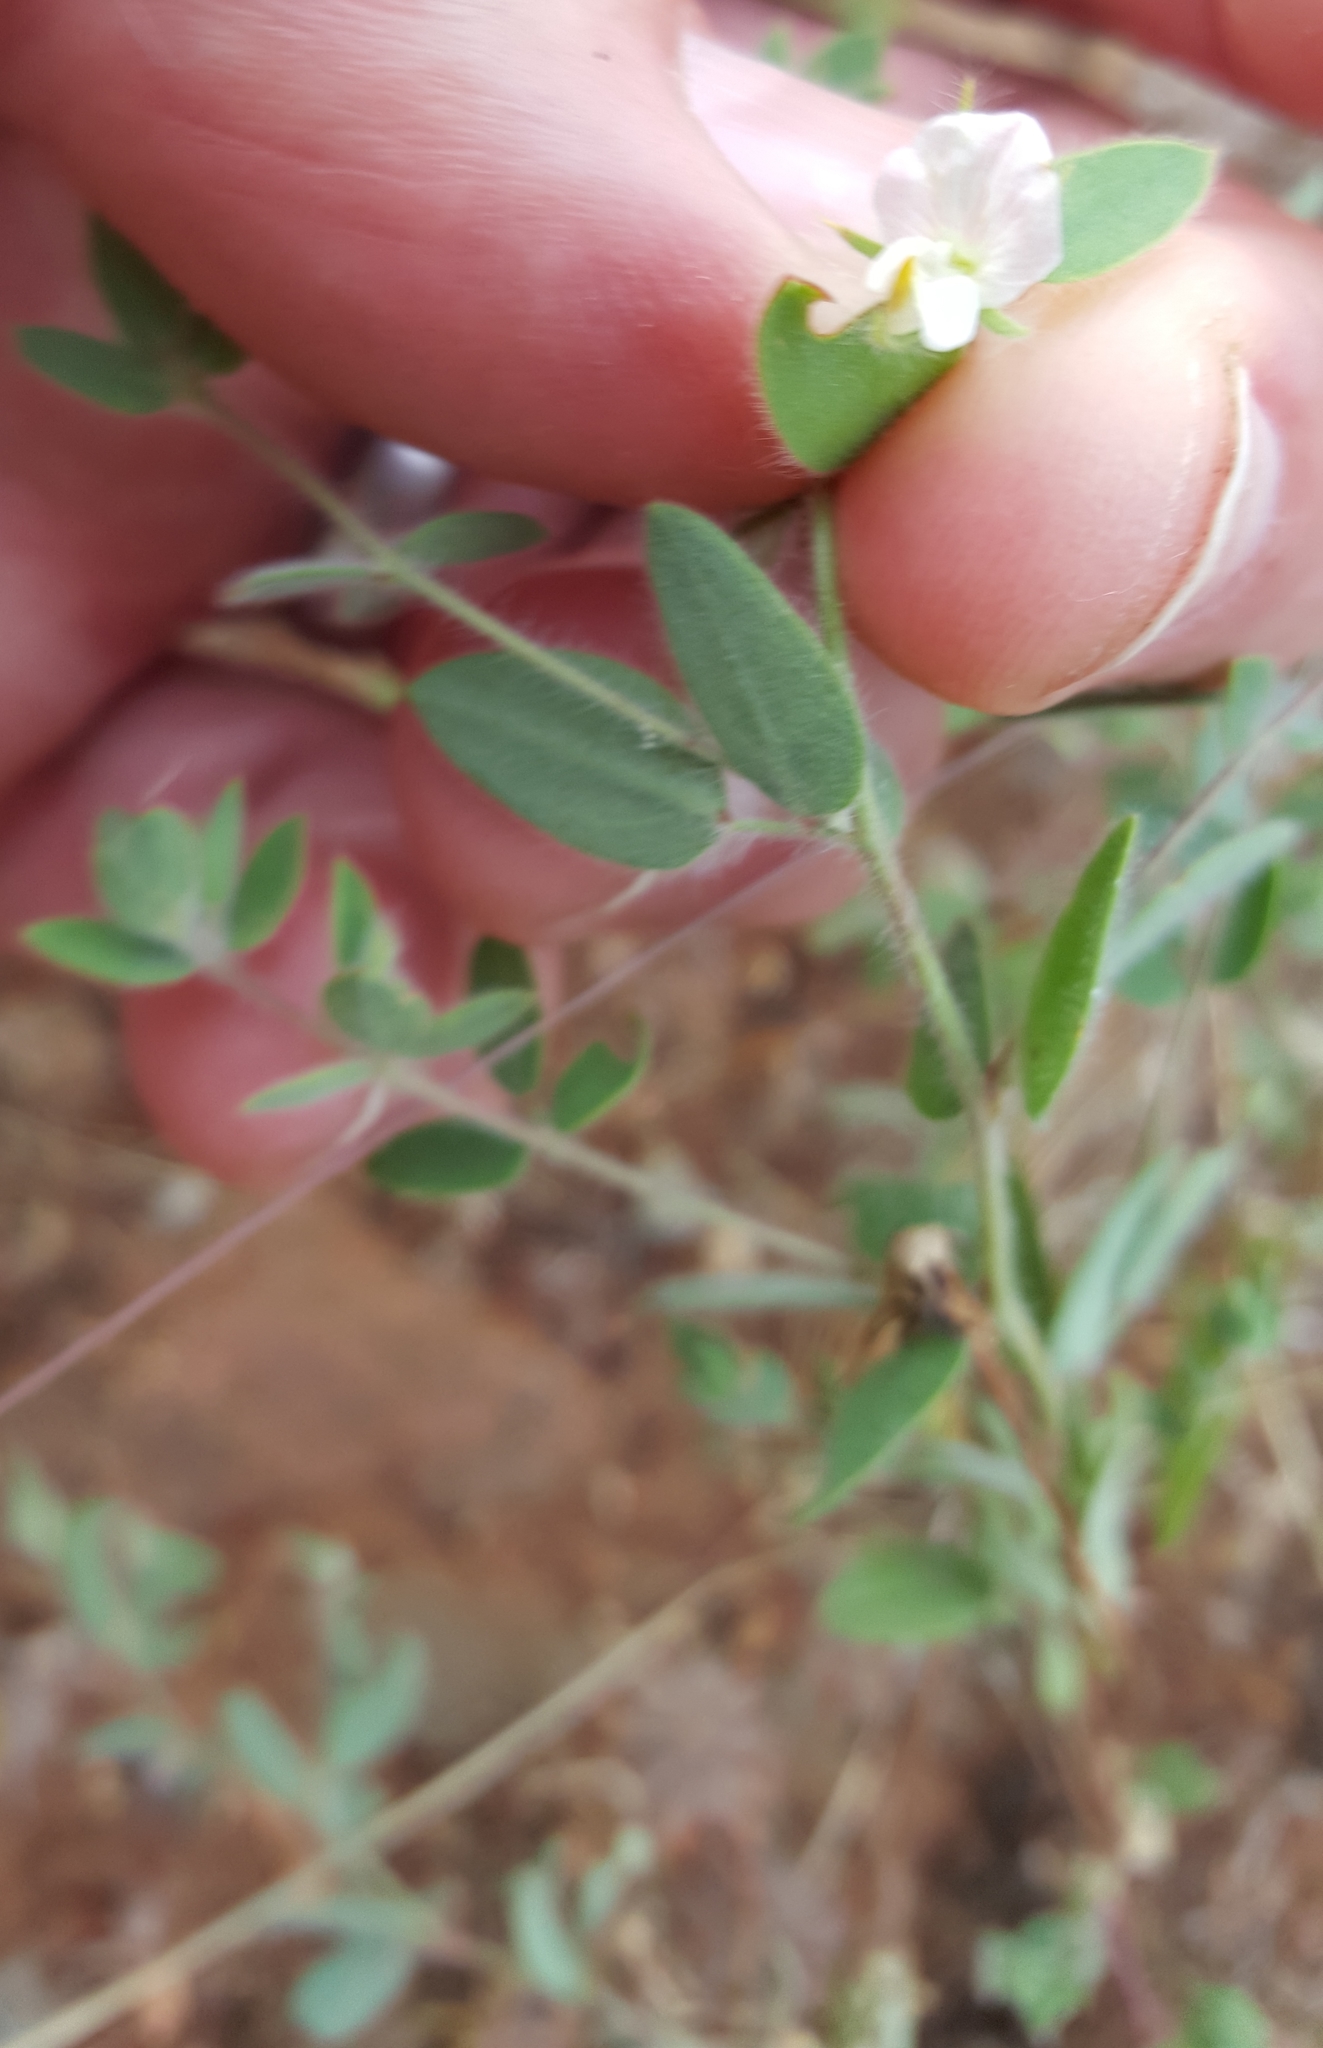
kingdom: Plantae
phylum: Tracheophyta
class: Magnoliopsida
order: Fabales
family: Fabaceae
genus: Acmispon
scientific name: Acmispon americanus
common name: American bird's-foot trefoil
